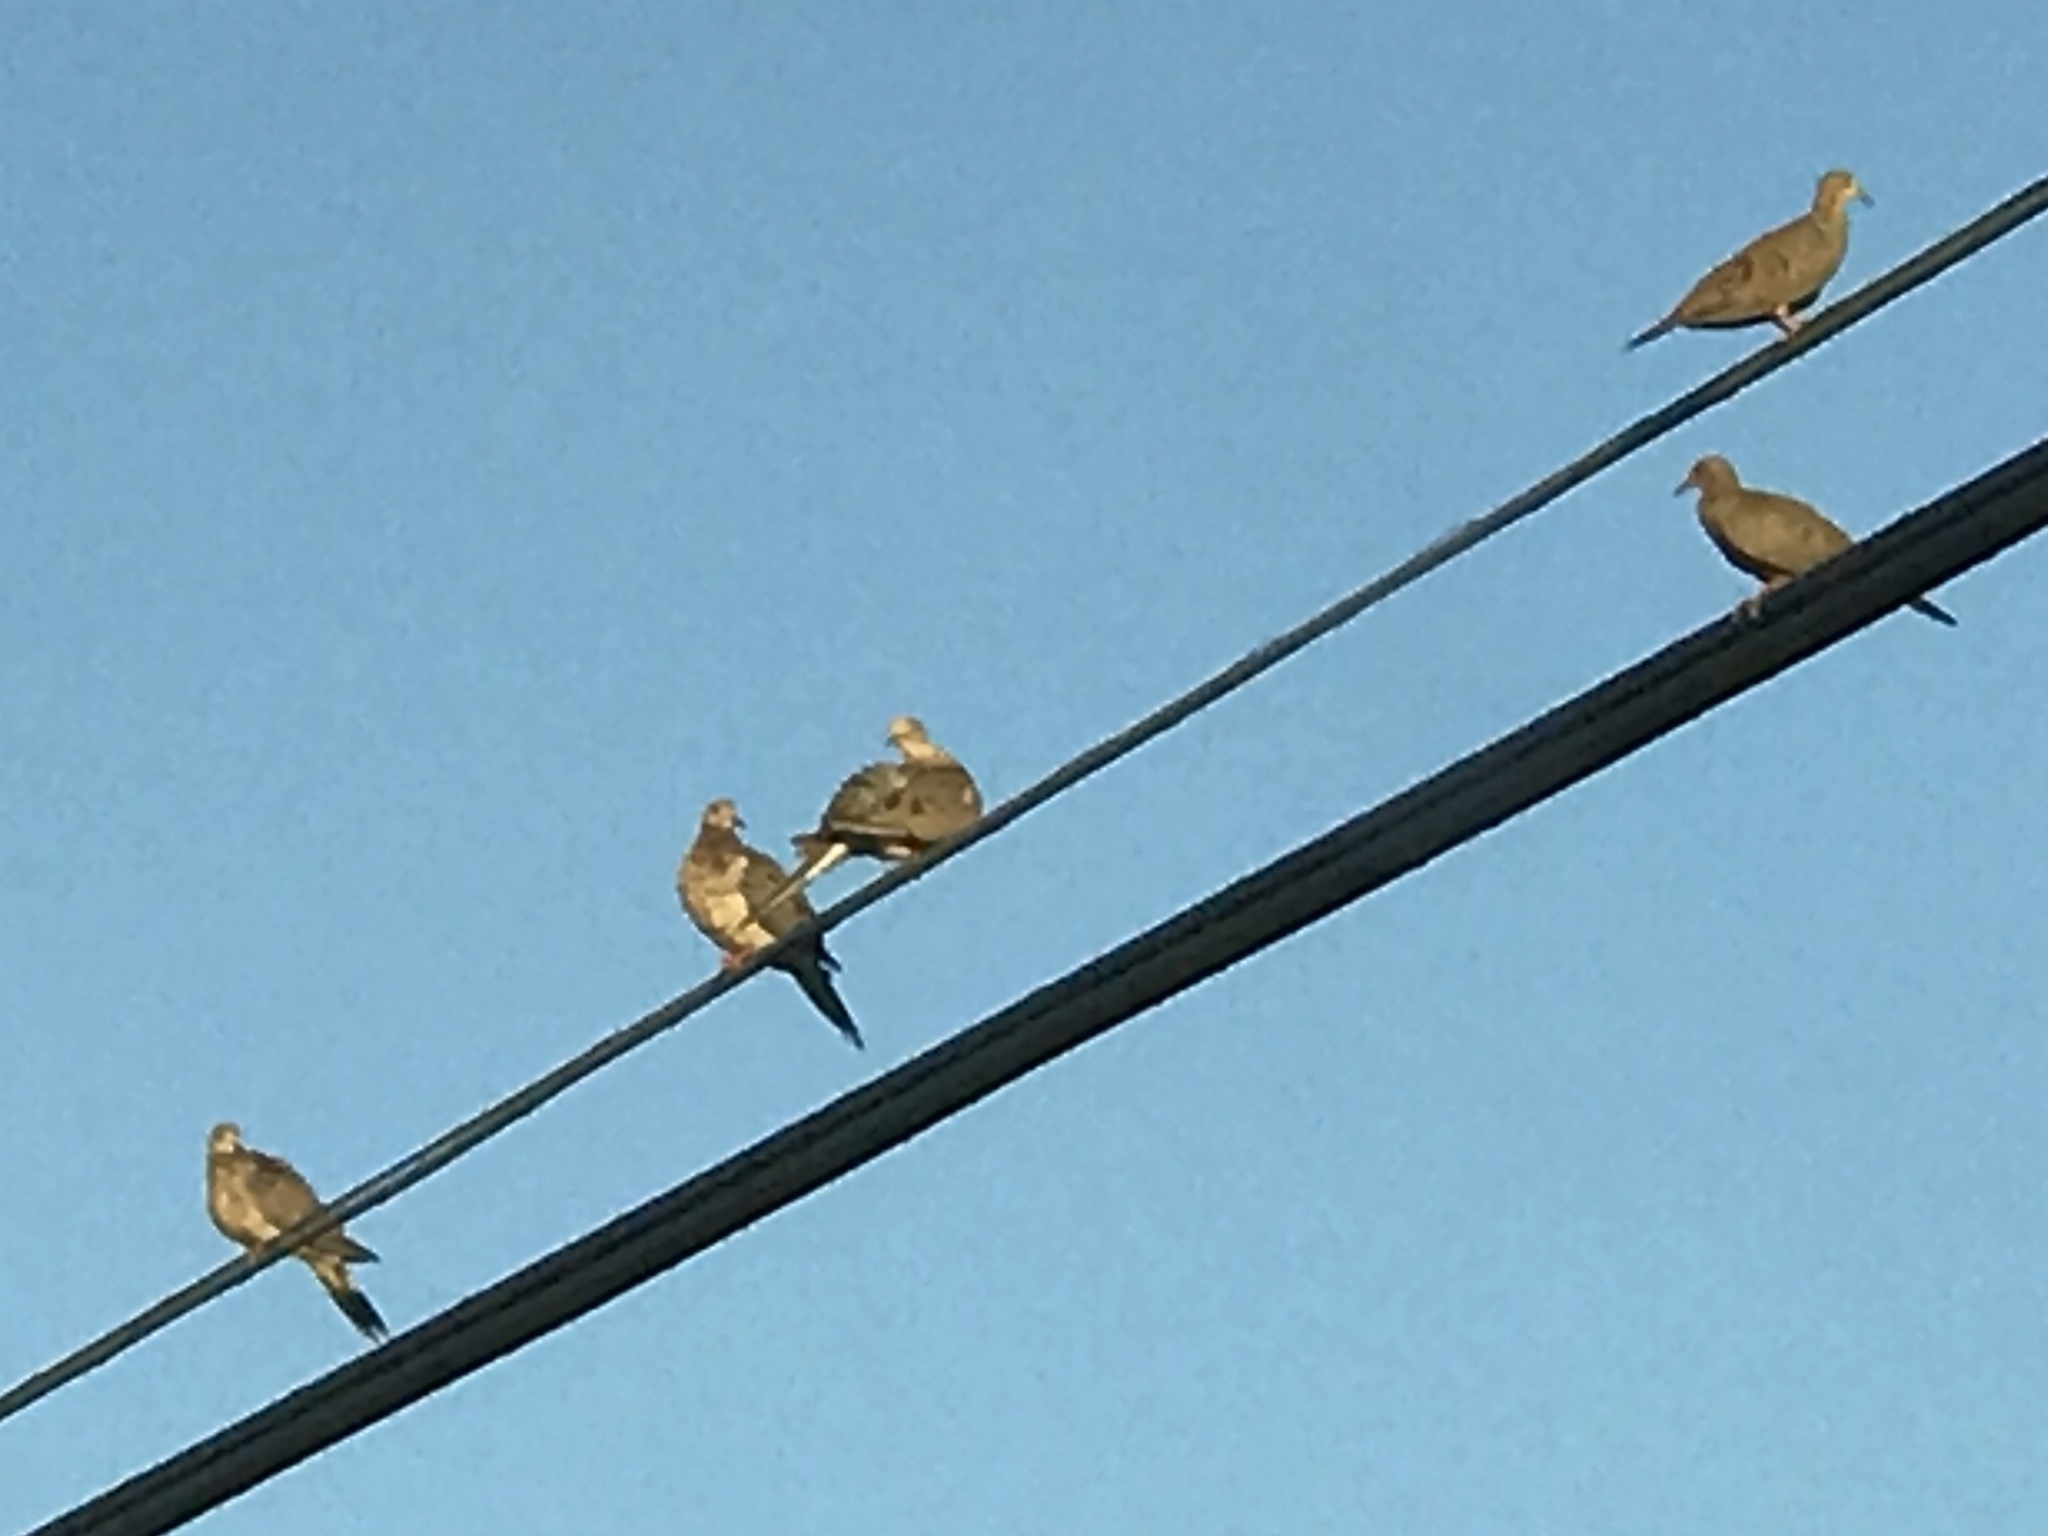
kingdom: Animalia
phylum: Chordata
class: Aves
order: Columbiformes
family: Columbidae
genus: Zenaida
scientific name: Zenaida macroura
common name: Mourning dove
